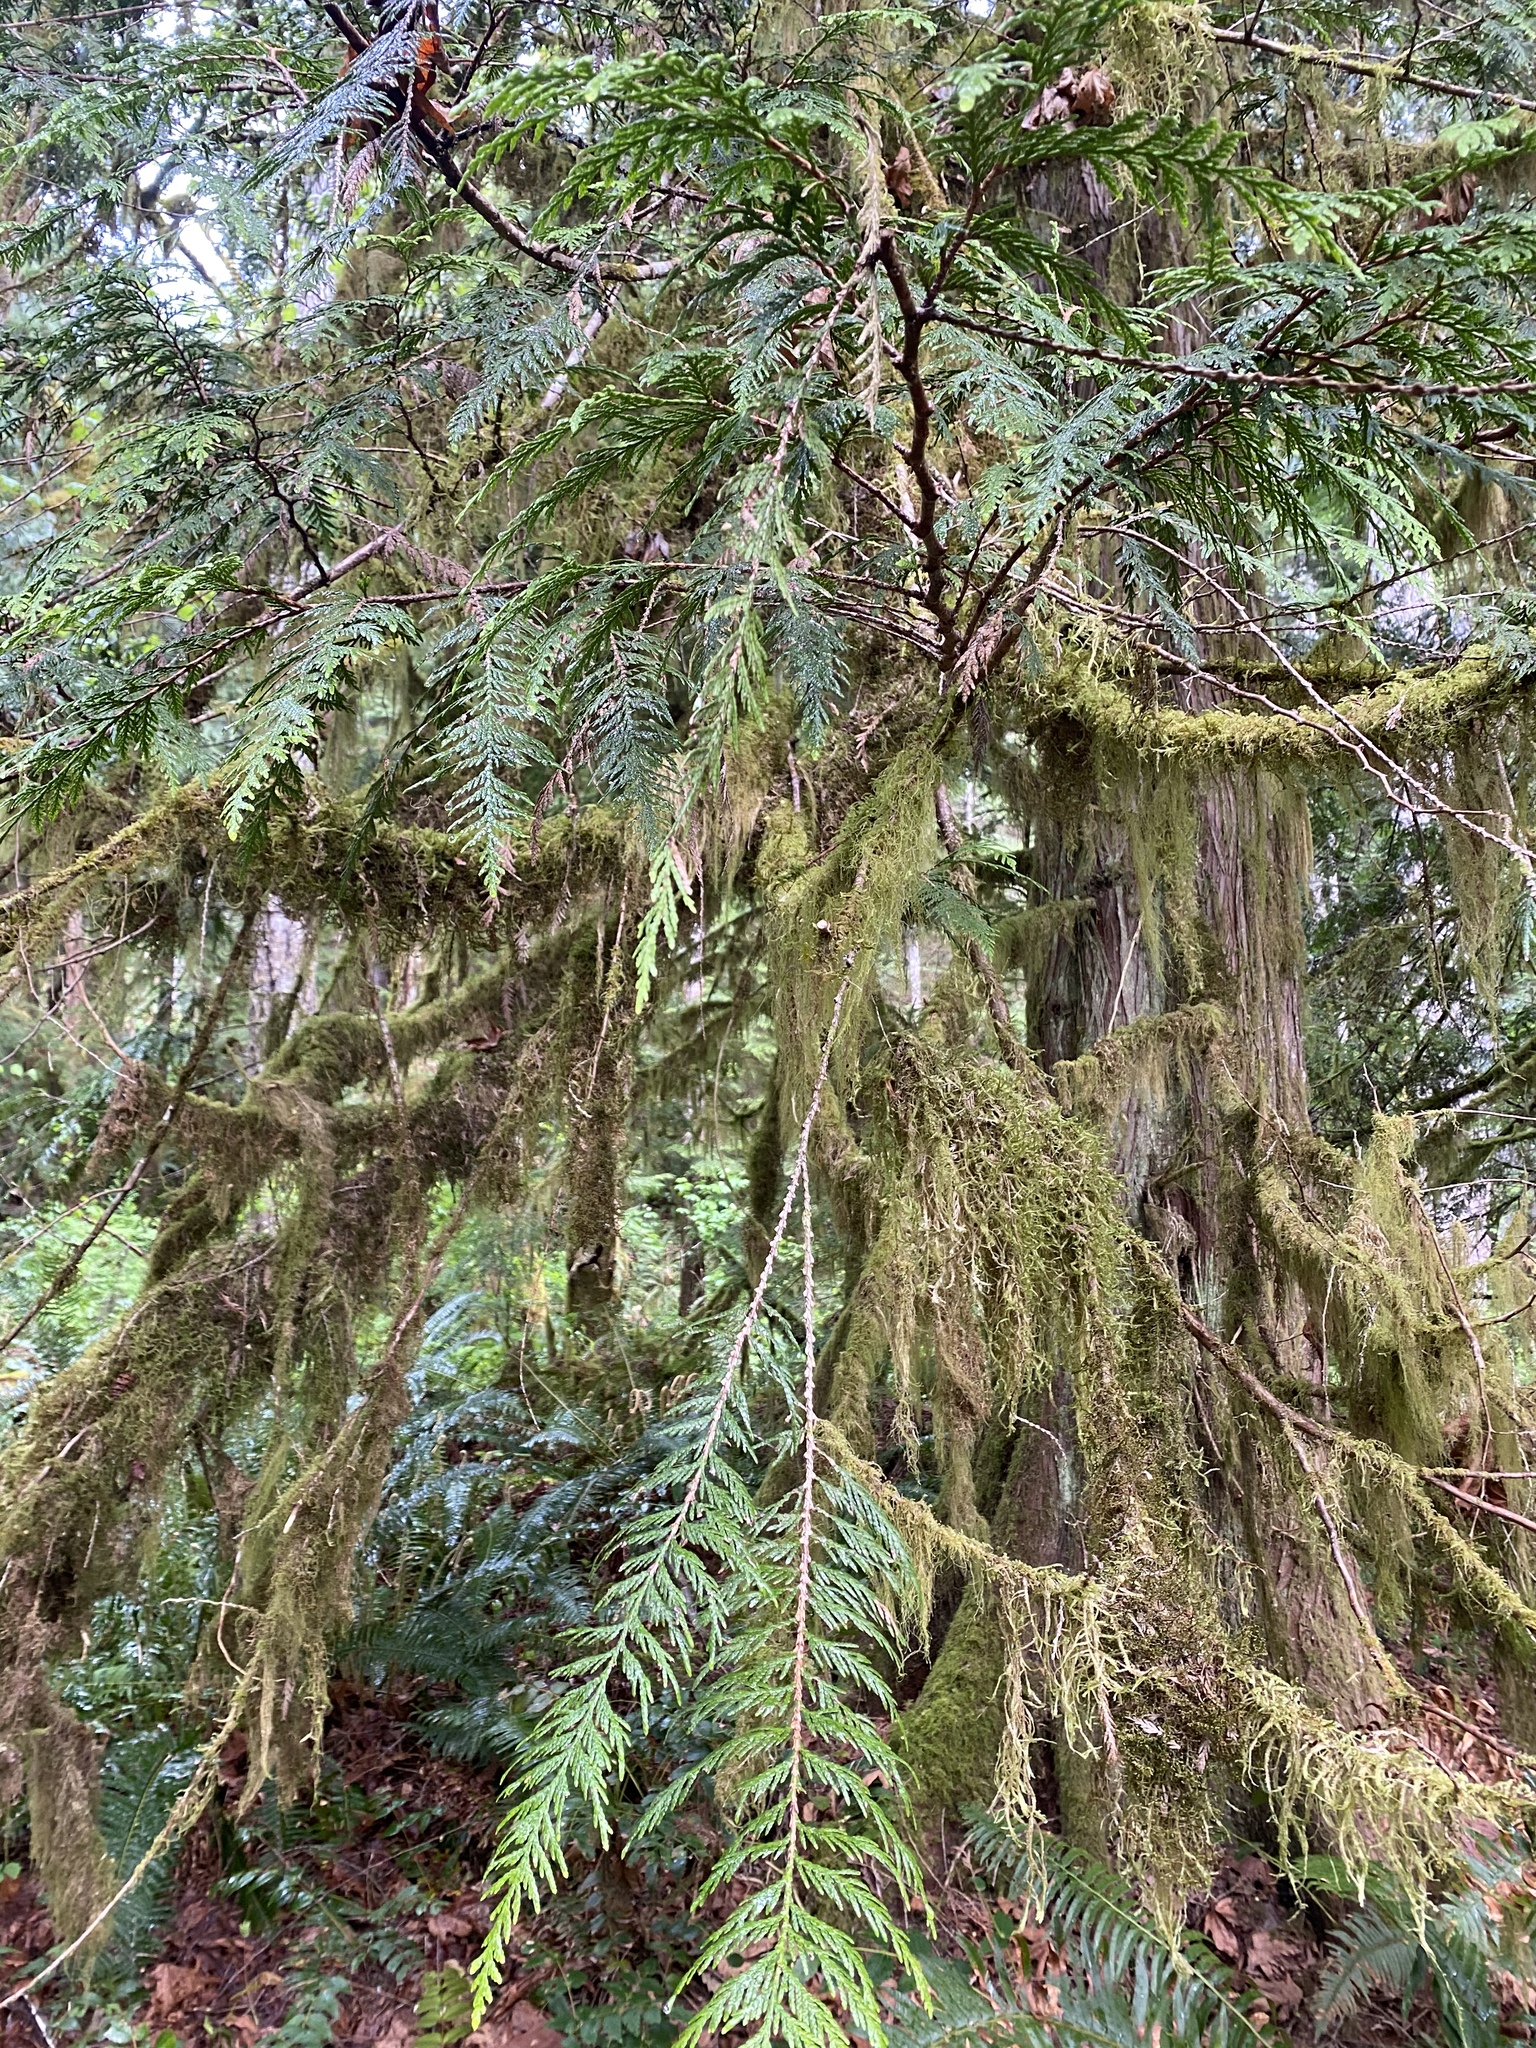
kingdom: Plantae
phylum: Tracheophyta
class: Pinopsida
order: Pinales
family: Cupressaceae
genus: Thuja
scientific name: Thuja plicata
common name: Western red-cedar
